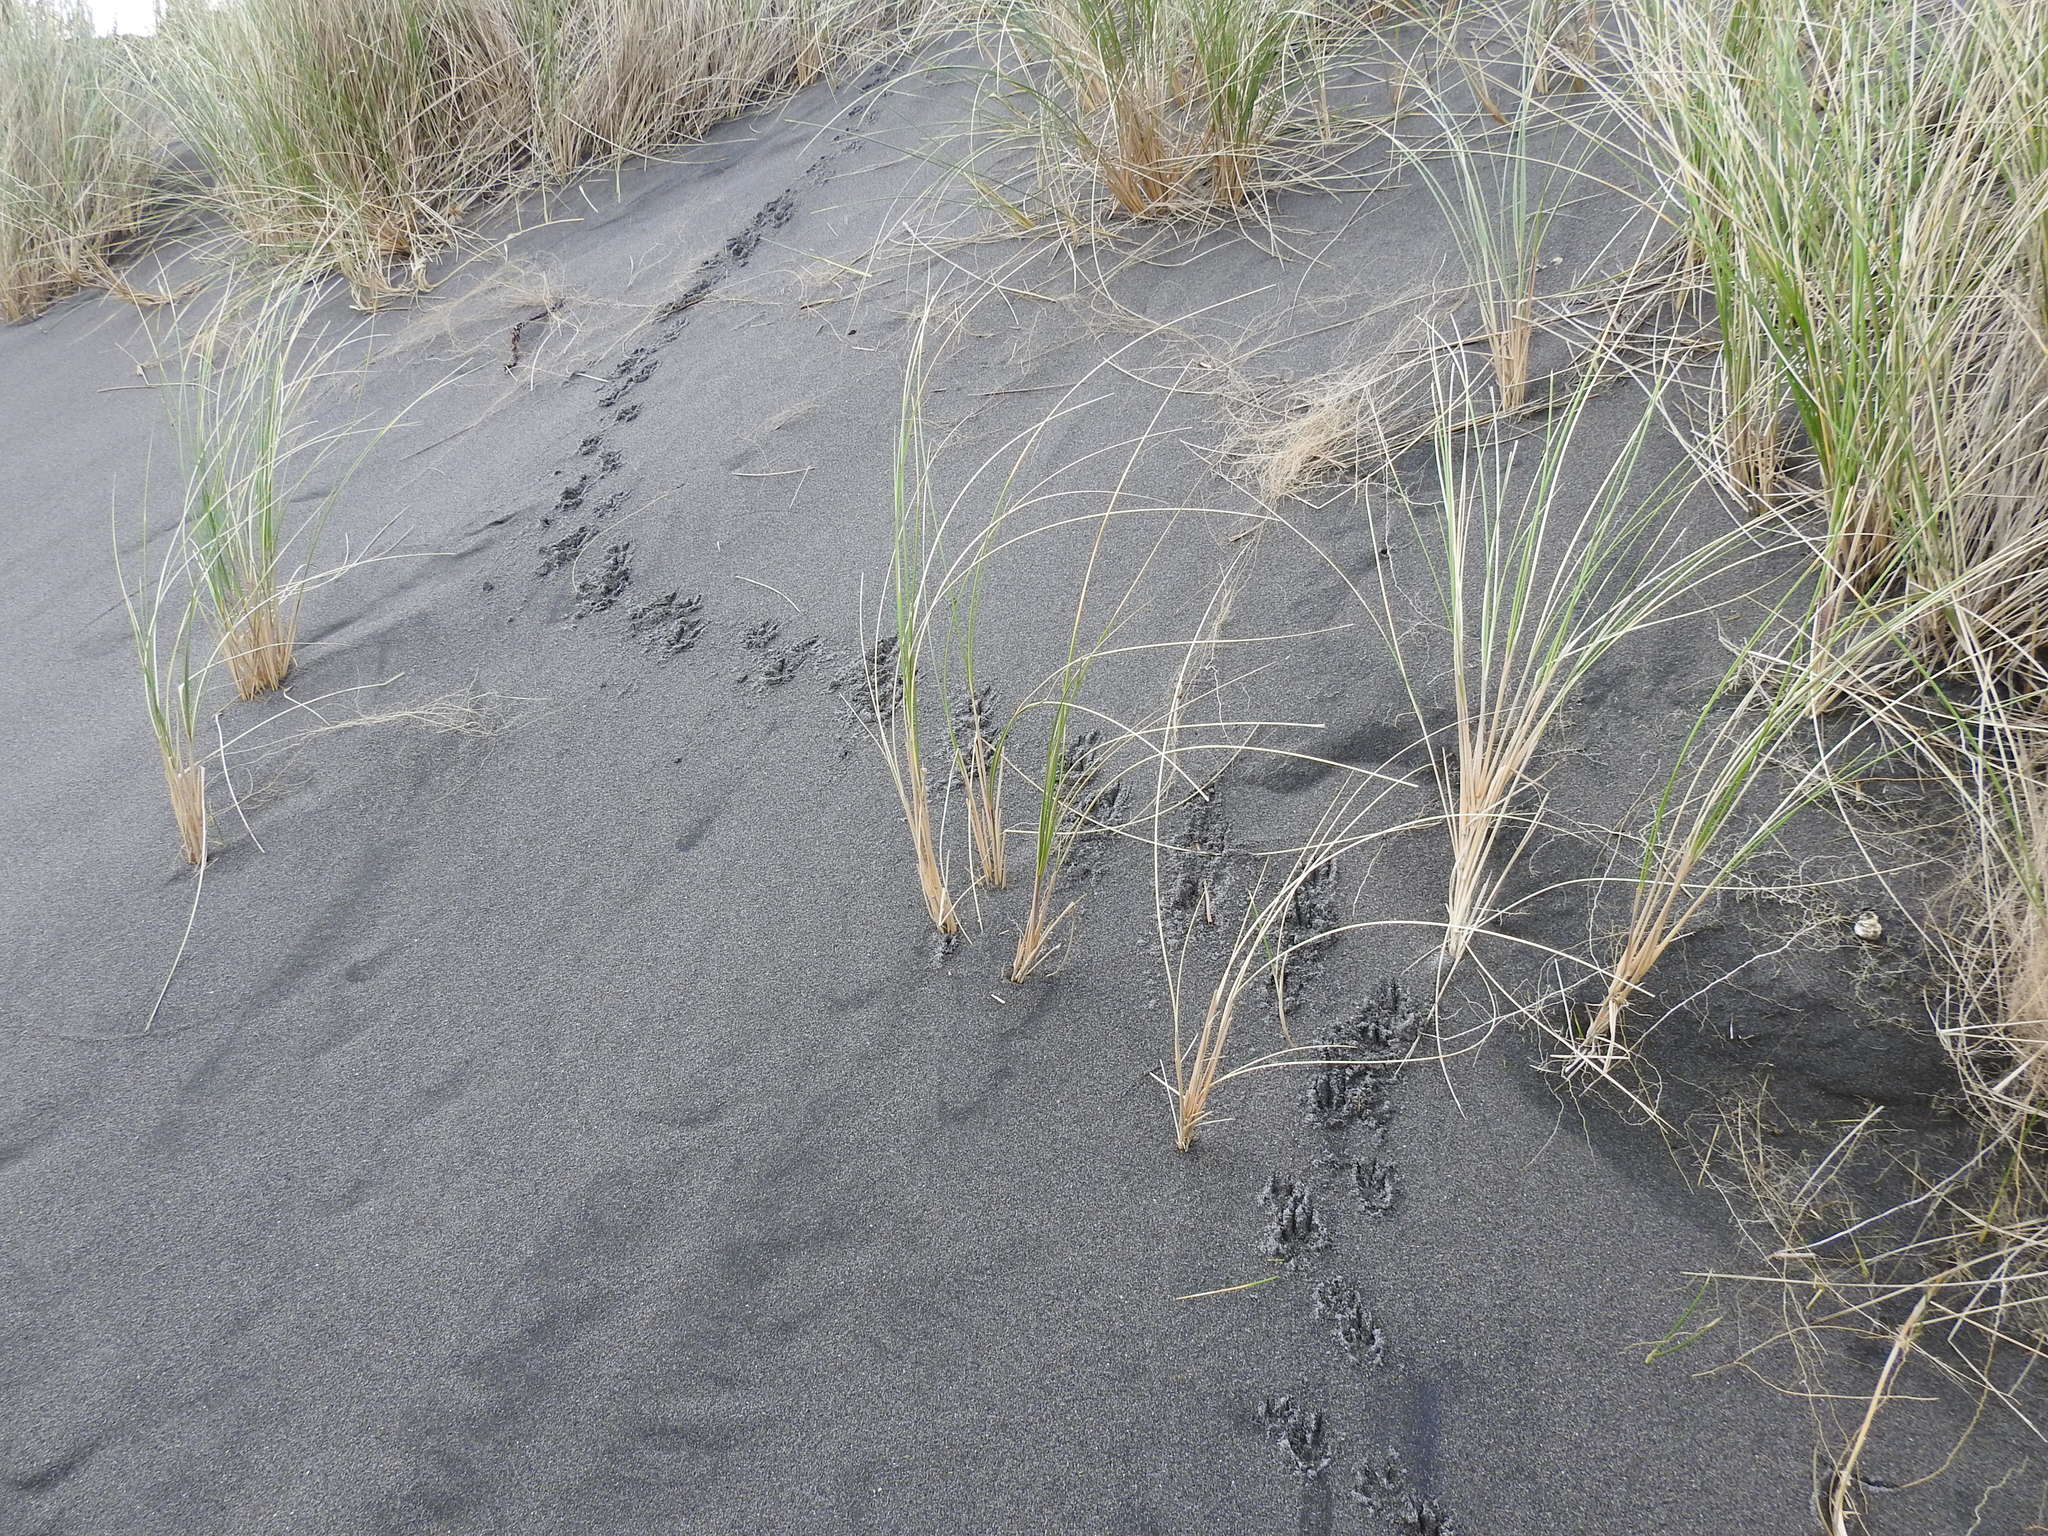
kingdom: Animalia
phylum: Chordata
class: Mammalia
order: Erinaceomorpha
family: Erinaceidae
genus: Erinaceus
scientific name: Erinaceus europaeus
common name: West european hedgehog
